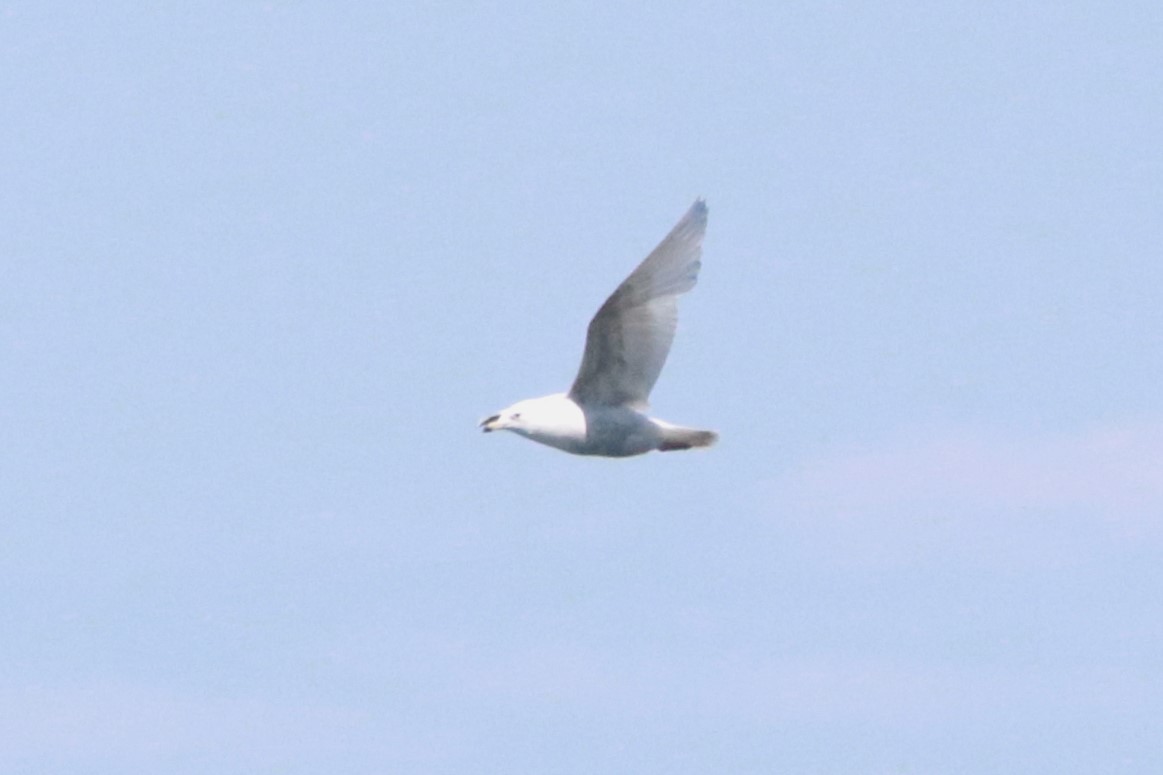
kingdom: Animalia
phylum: Chordata
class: Aves
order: Charadriiformes
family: Laridae
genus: Larus
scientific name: Larus hyperboreus
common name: Glaucous gull
